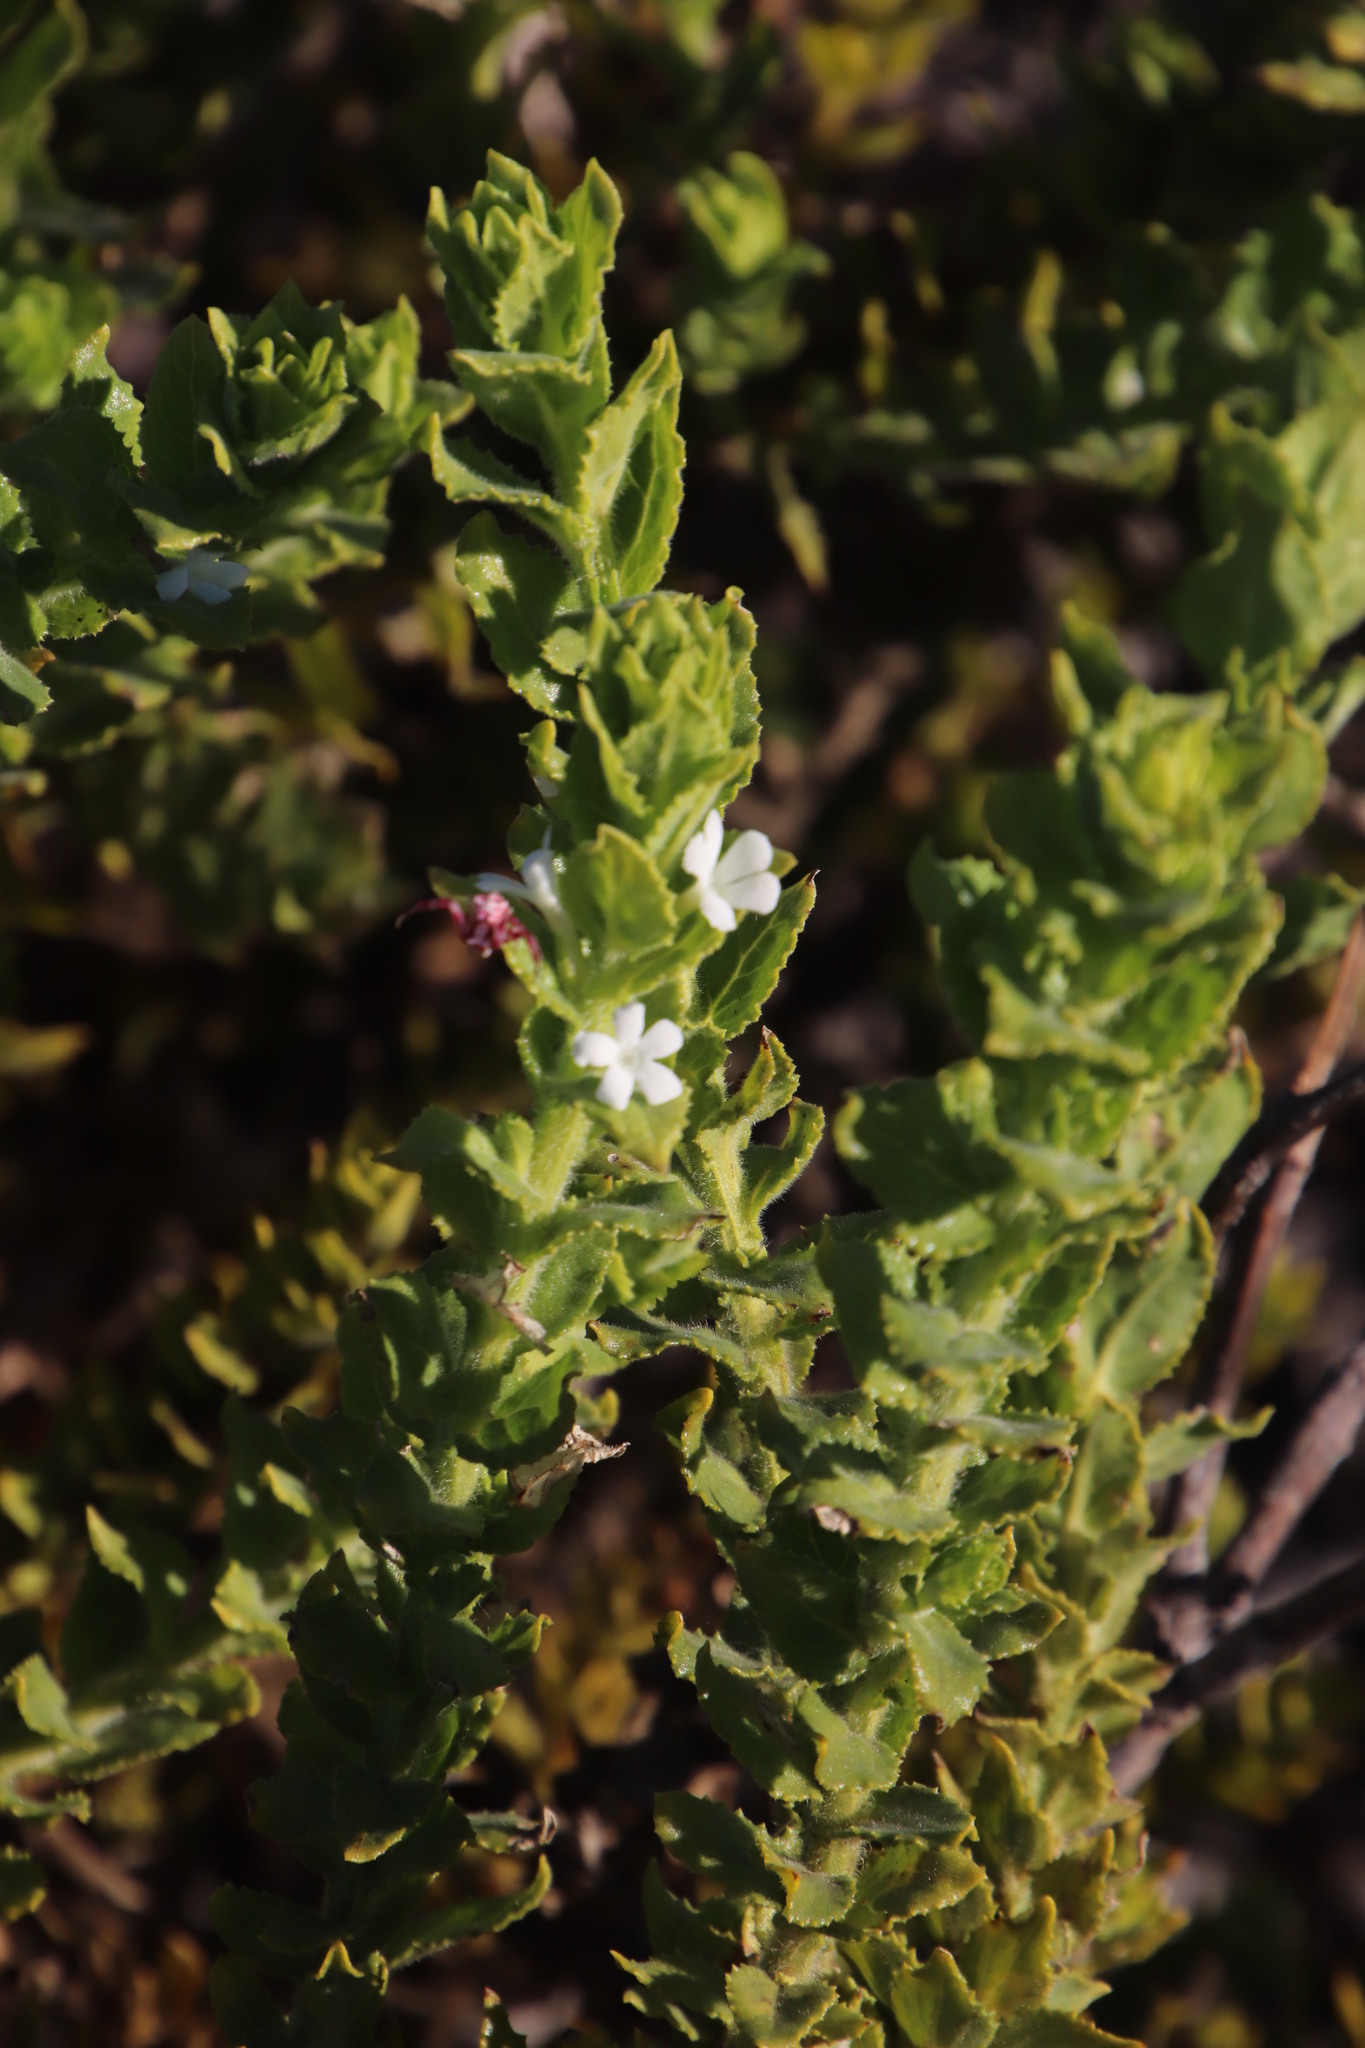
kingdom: Plantae
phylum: Tracheophyta
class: Magnoliopsida
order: Lamiales
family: Scrophulariaceae
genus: Oftia
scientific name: Oftia africana
